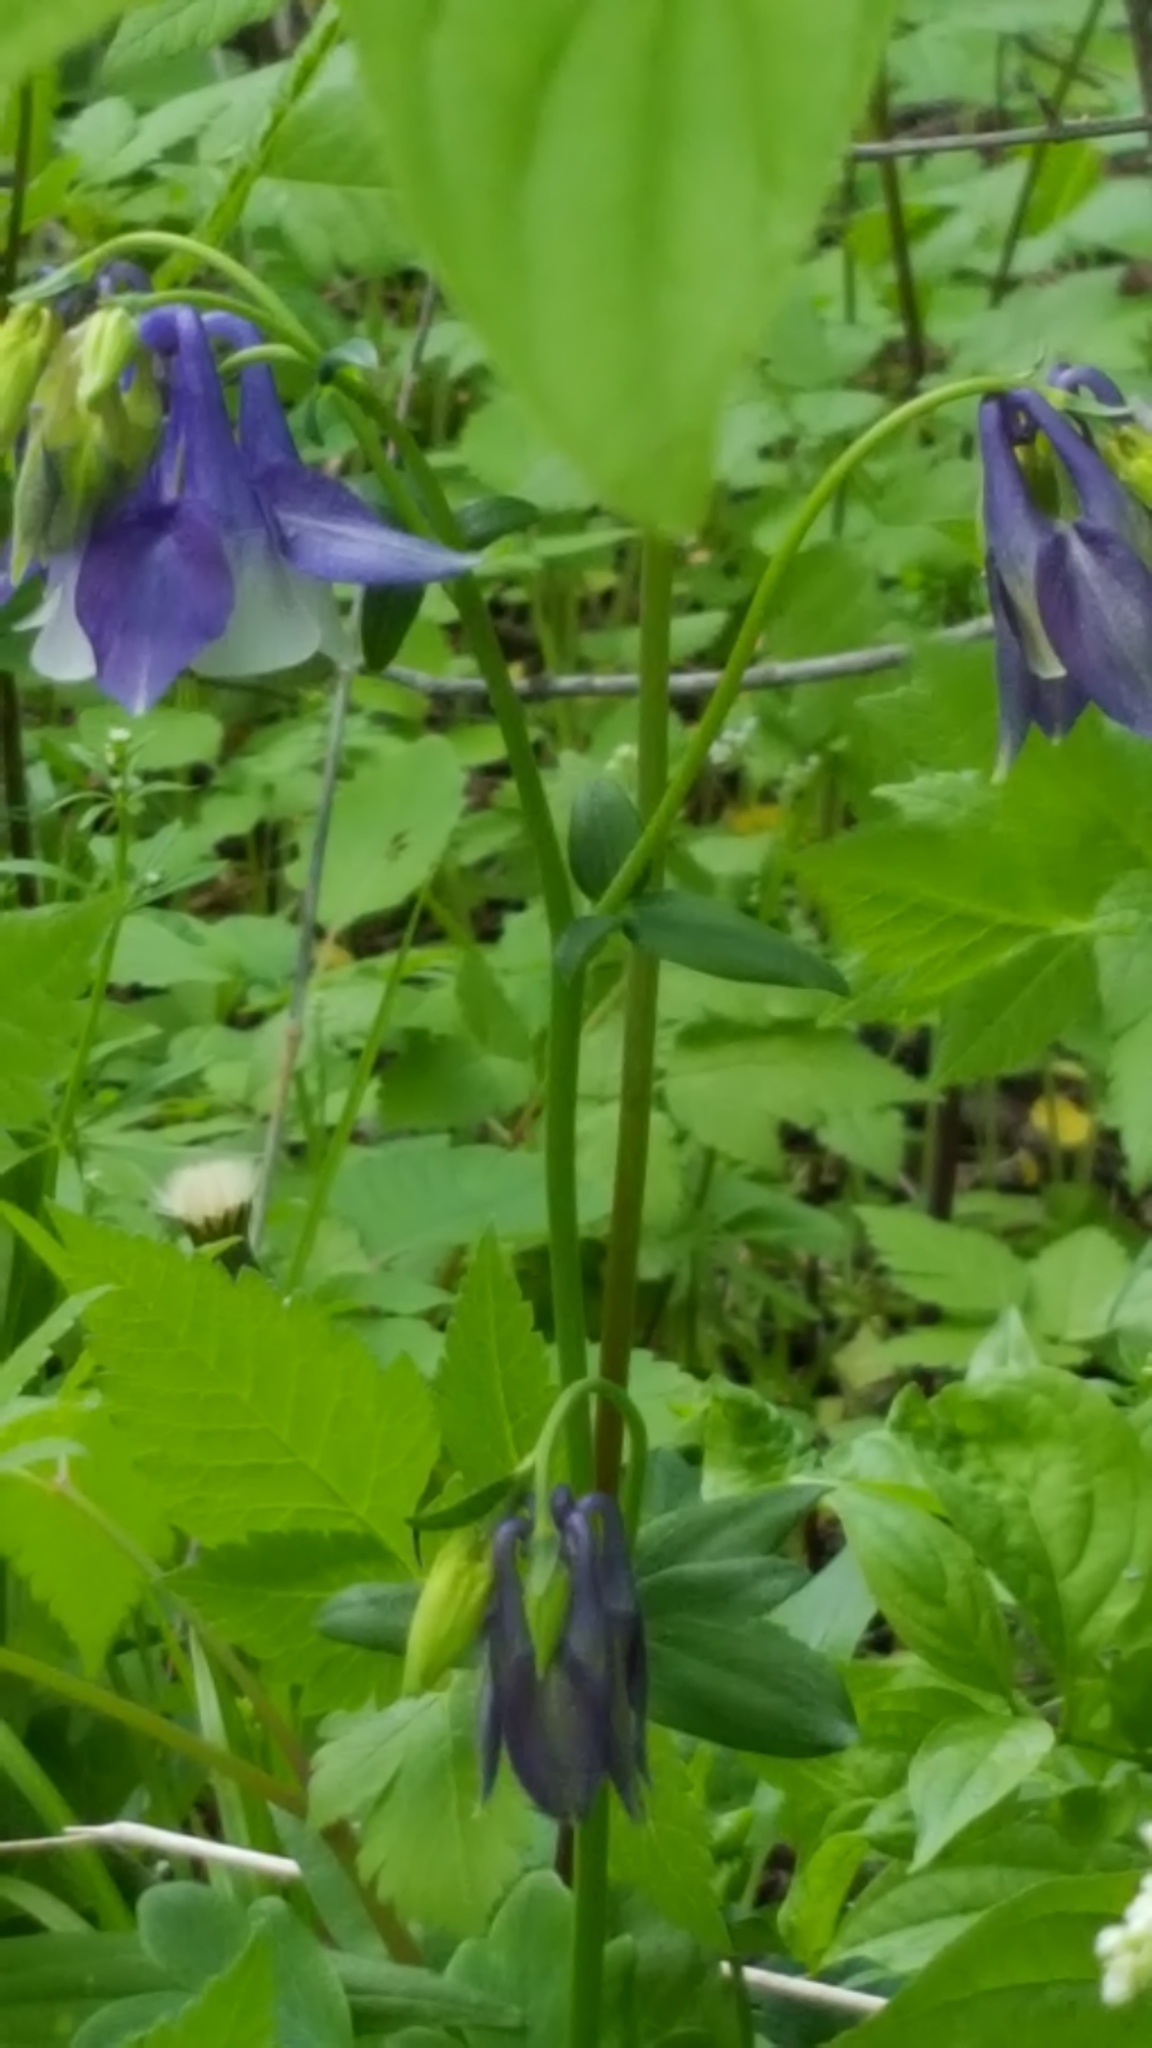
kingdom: Plantae
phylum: Tracheophyta
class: Magnoliopsida
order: Ranunculales
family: Ranunculaceae
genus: Aquilegia
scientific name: Aquilegia vulgaris
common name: Columbine
